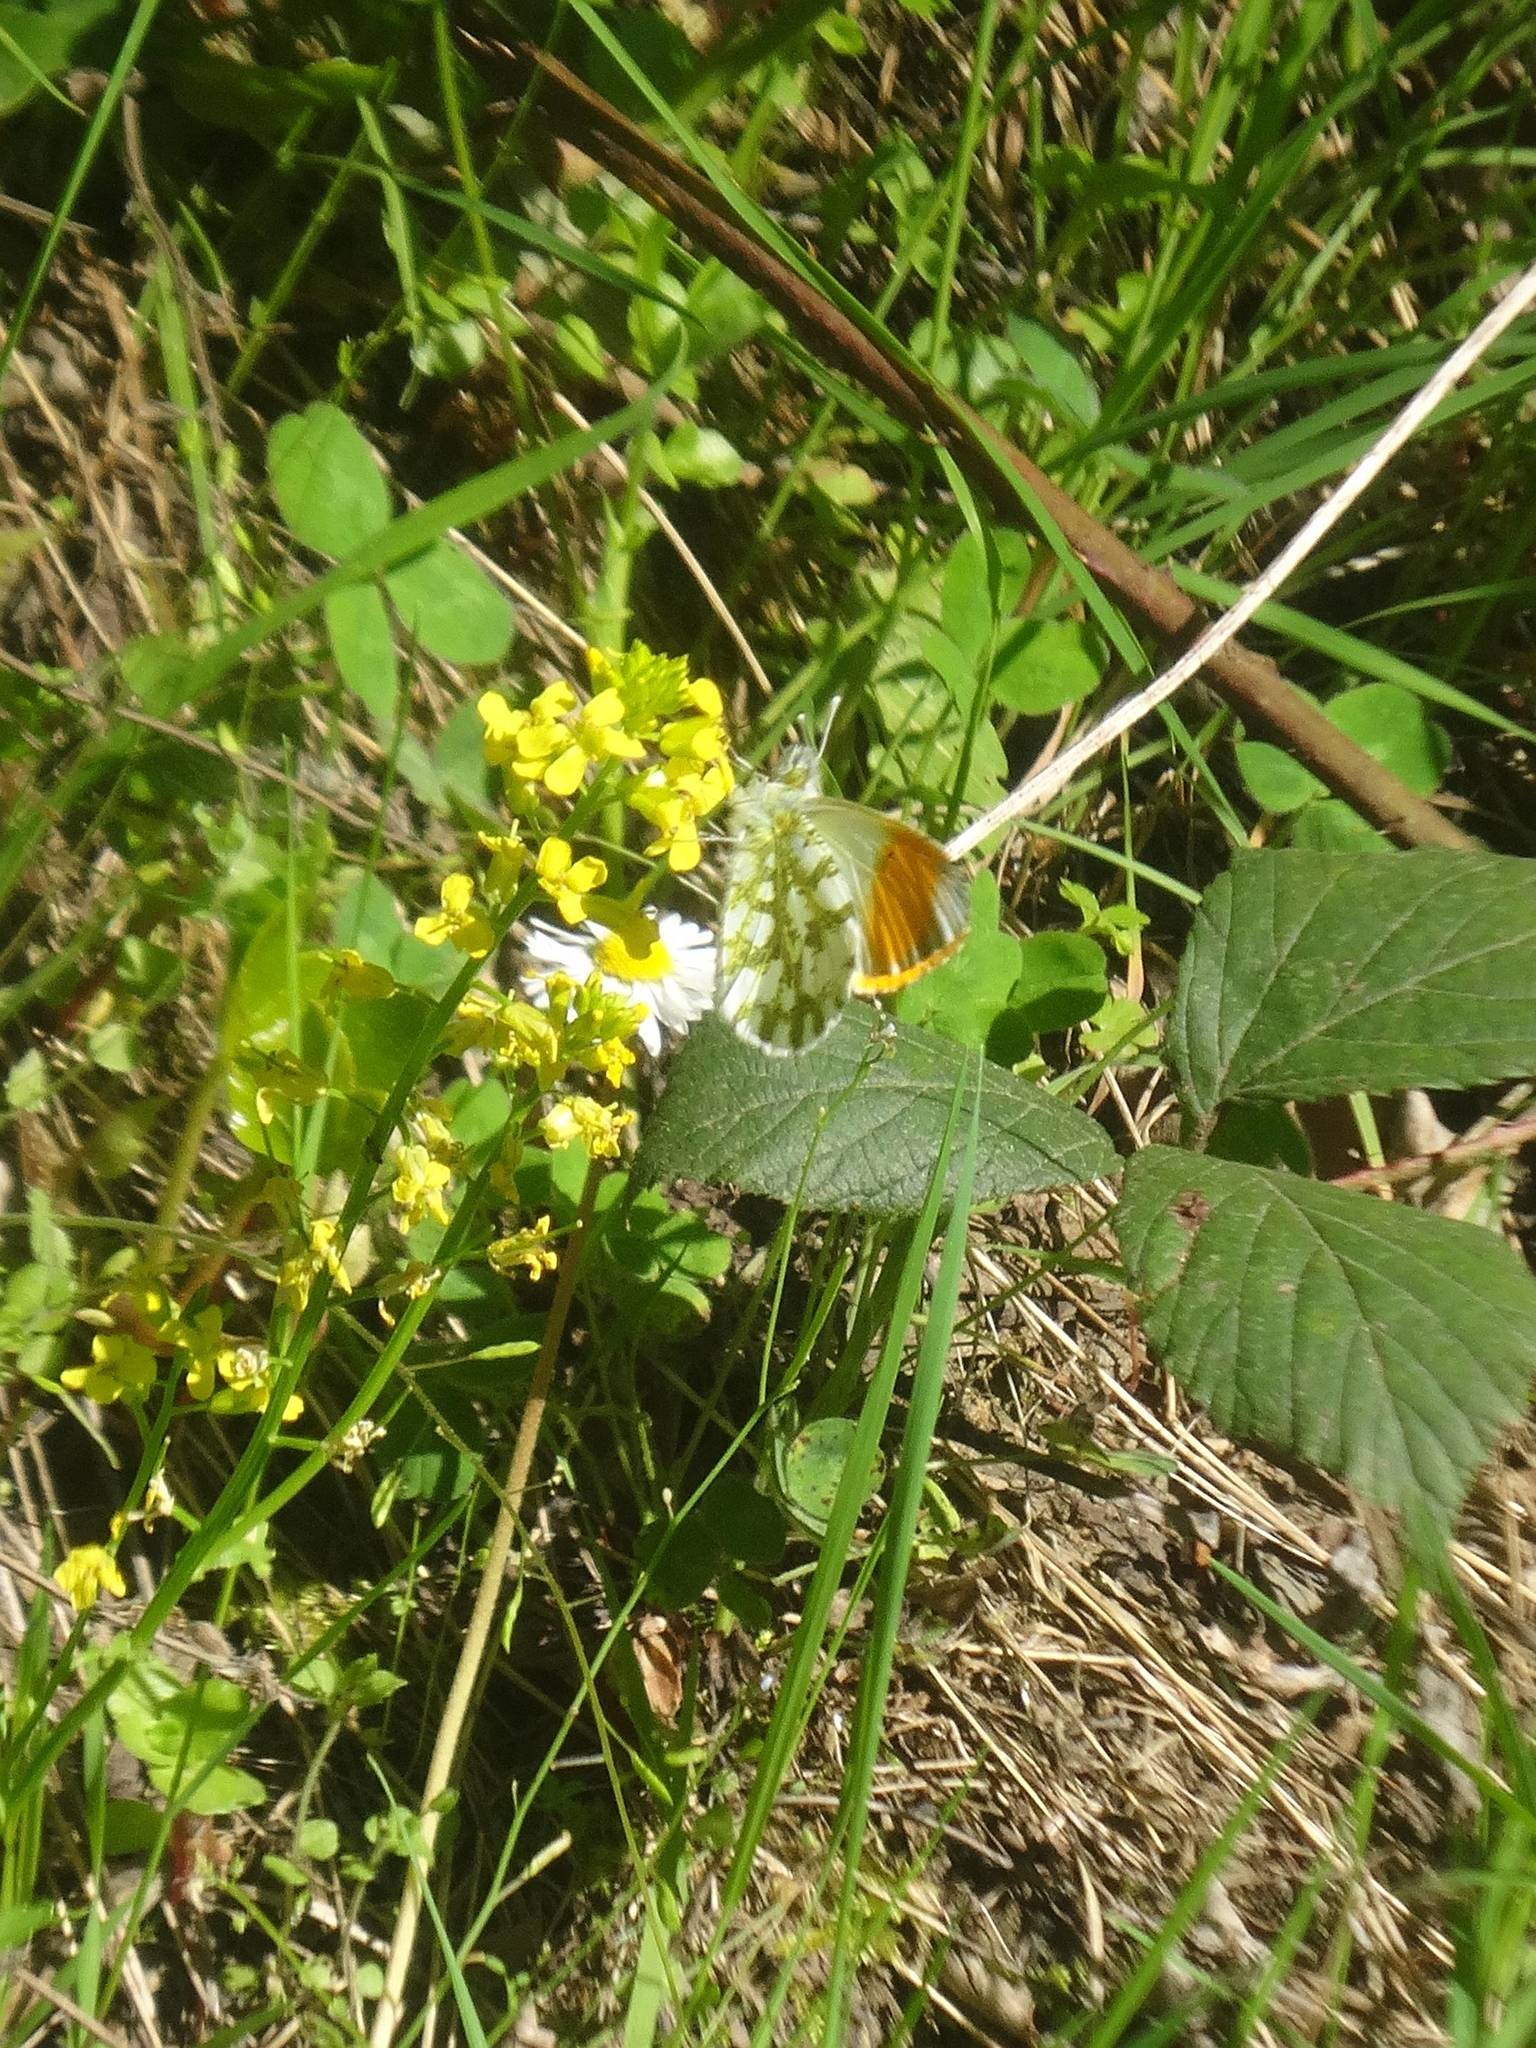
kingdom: Animalia
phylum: Arthropoda
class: Insecta
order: Lepidoptera
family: Pieridae
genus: Anthocharis
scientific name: Anthocharis cardamines
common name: Orange-tip
